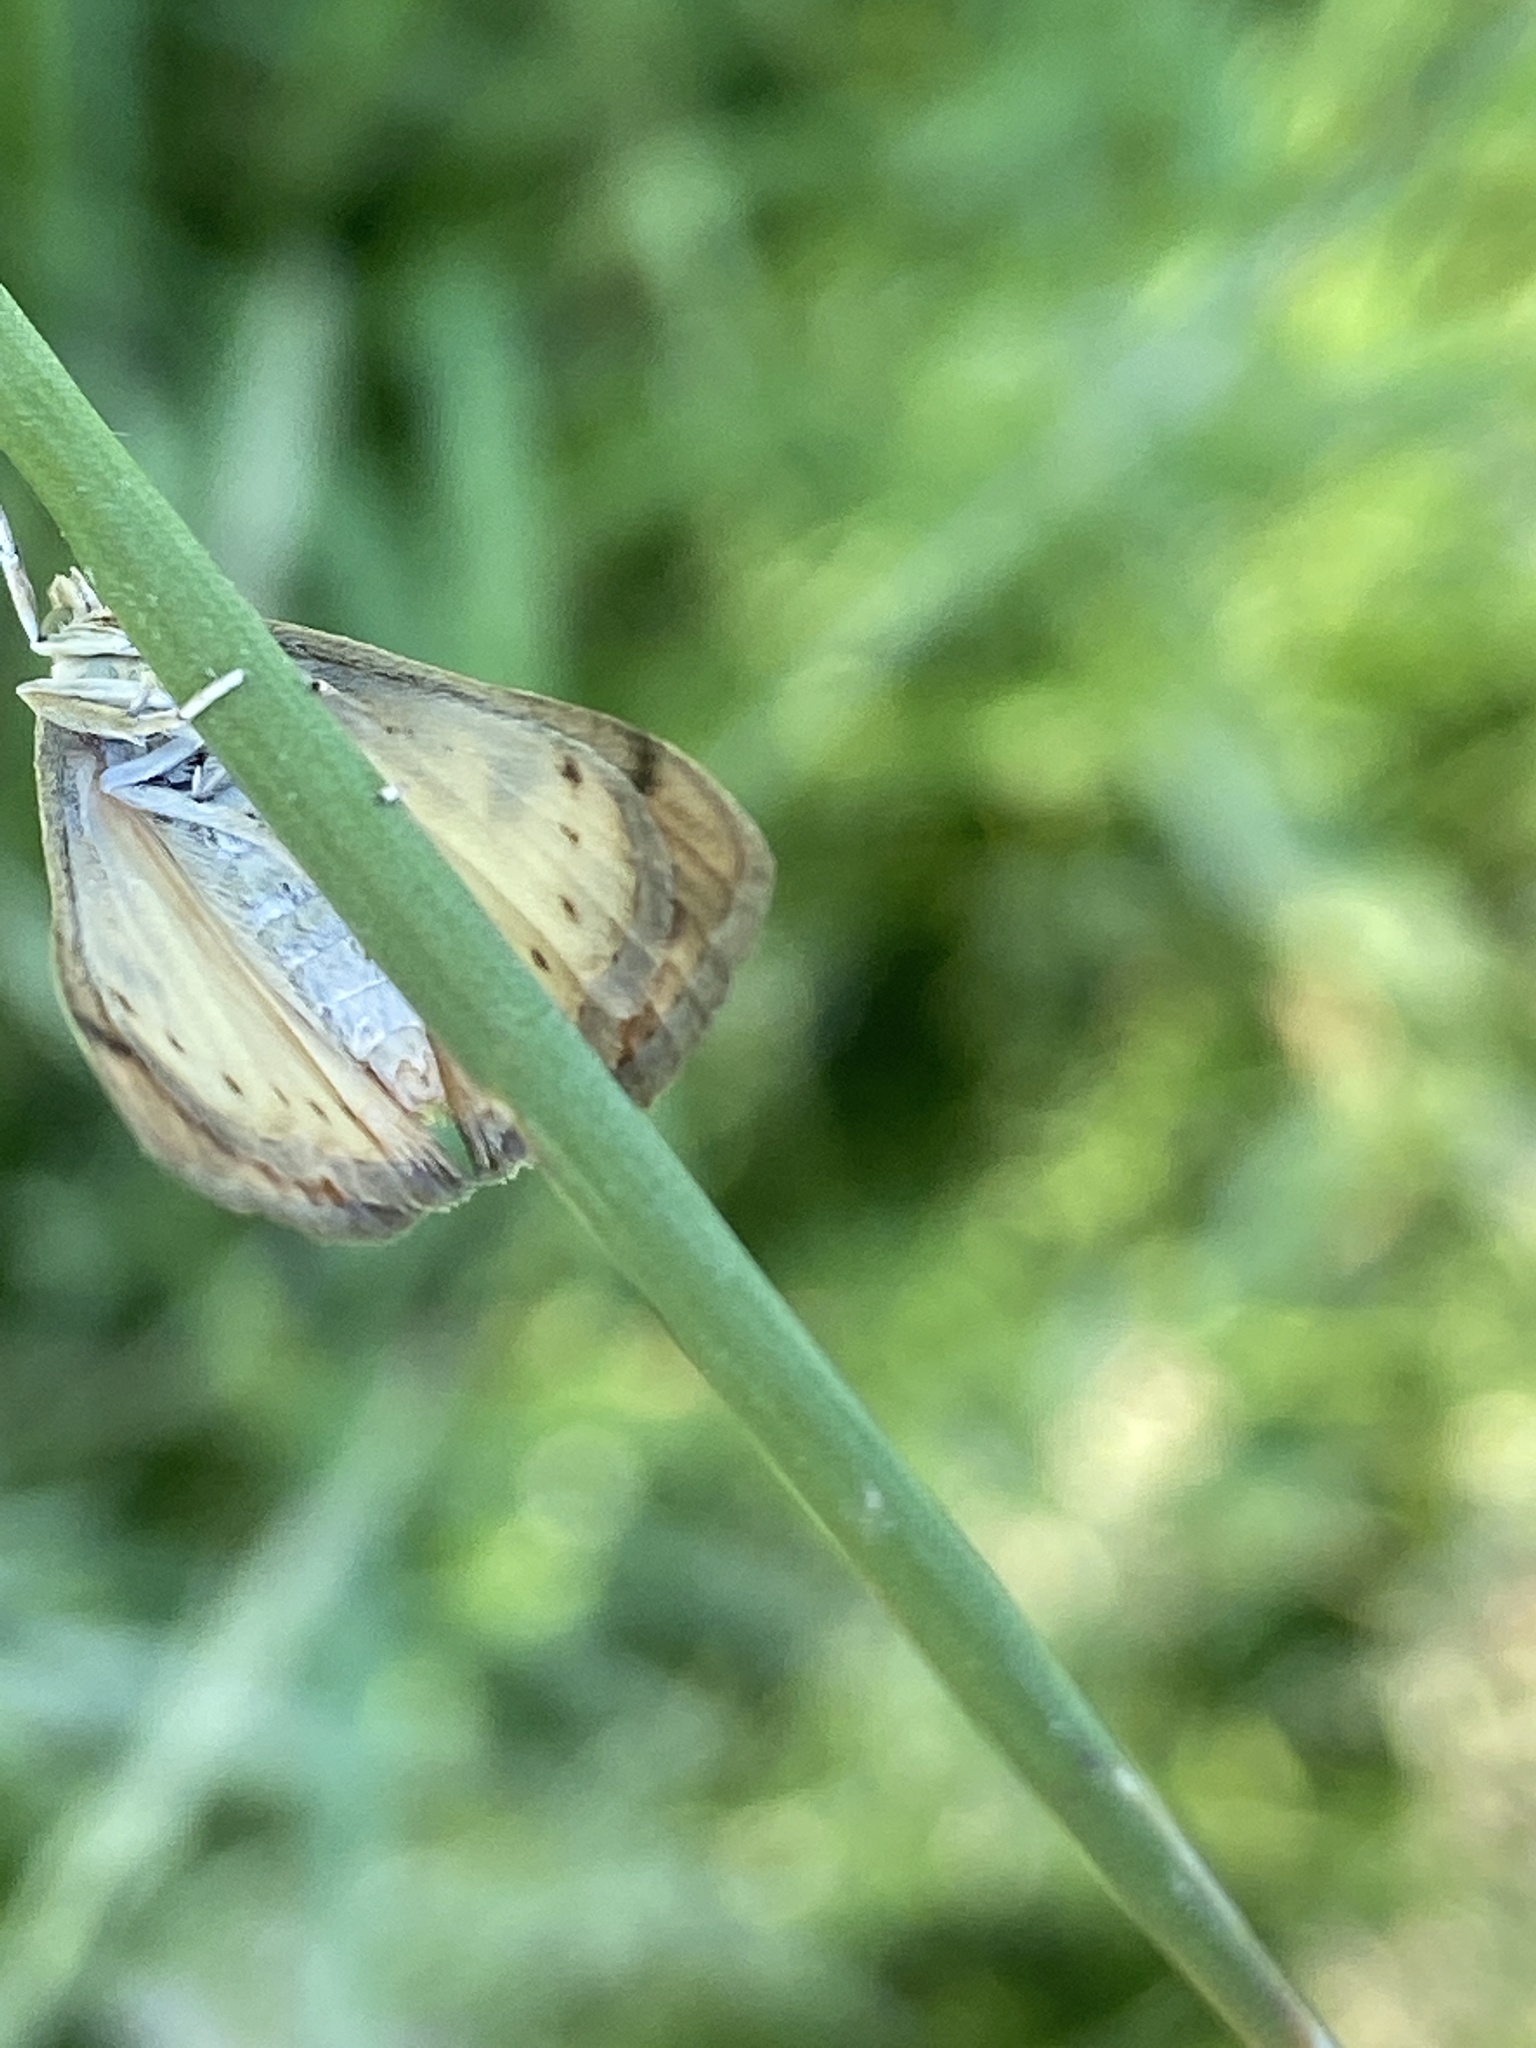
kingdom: Animalia
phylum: Arthropoda
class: Insecta
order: Lepidoptera
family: Crambidae
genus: Evergestis
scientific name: Evergestis extimalis
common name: Marbled yellow pearl
